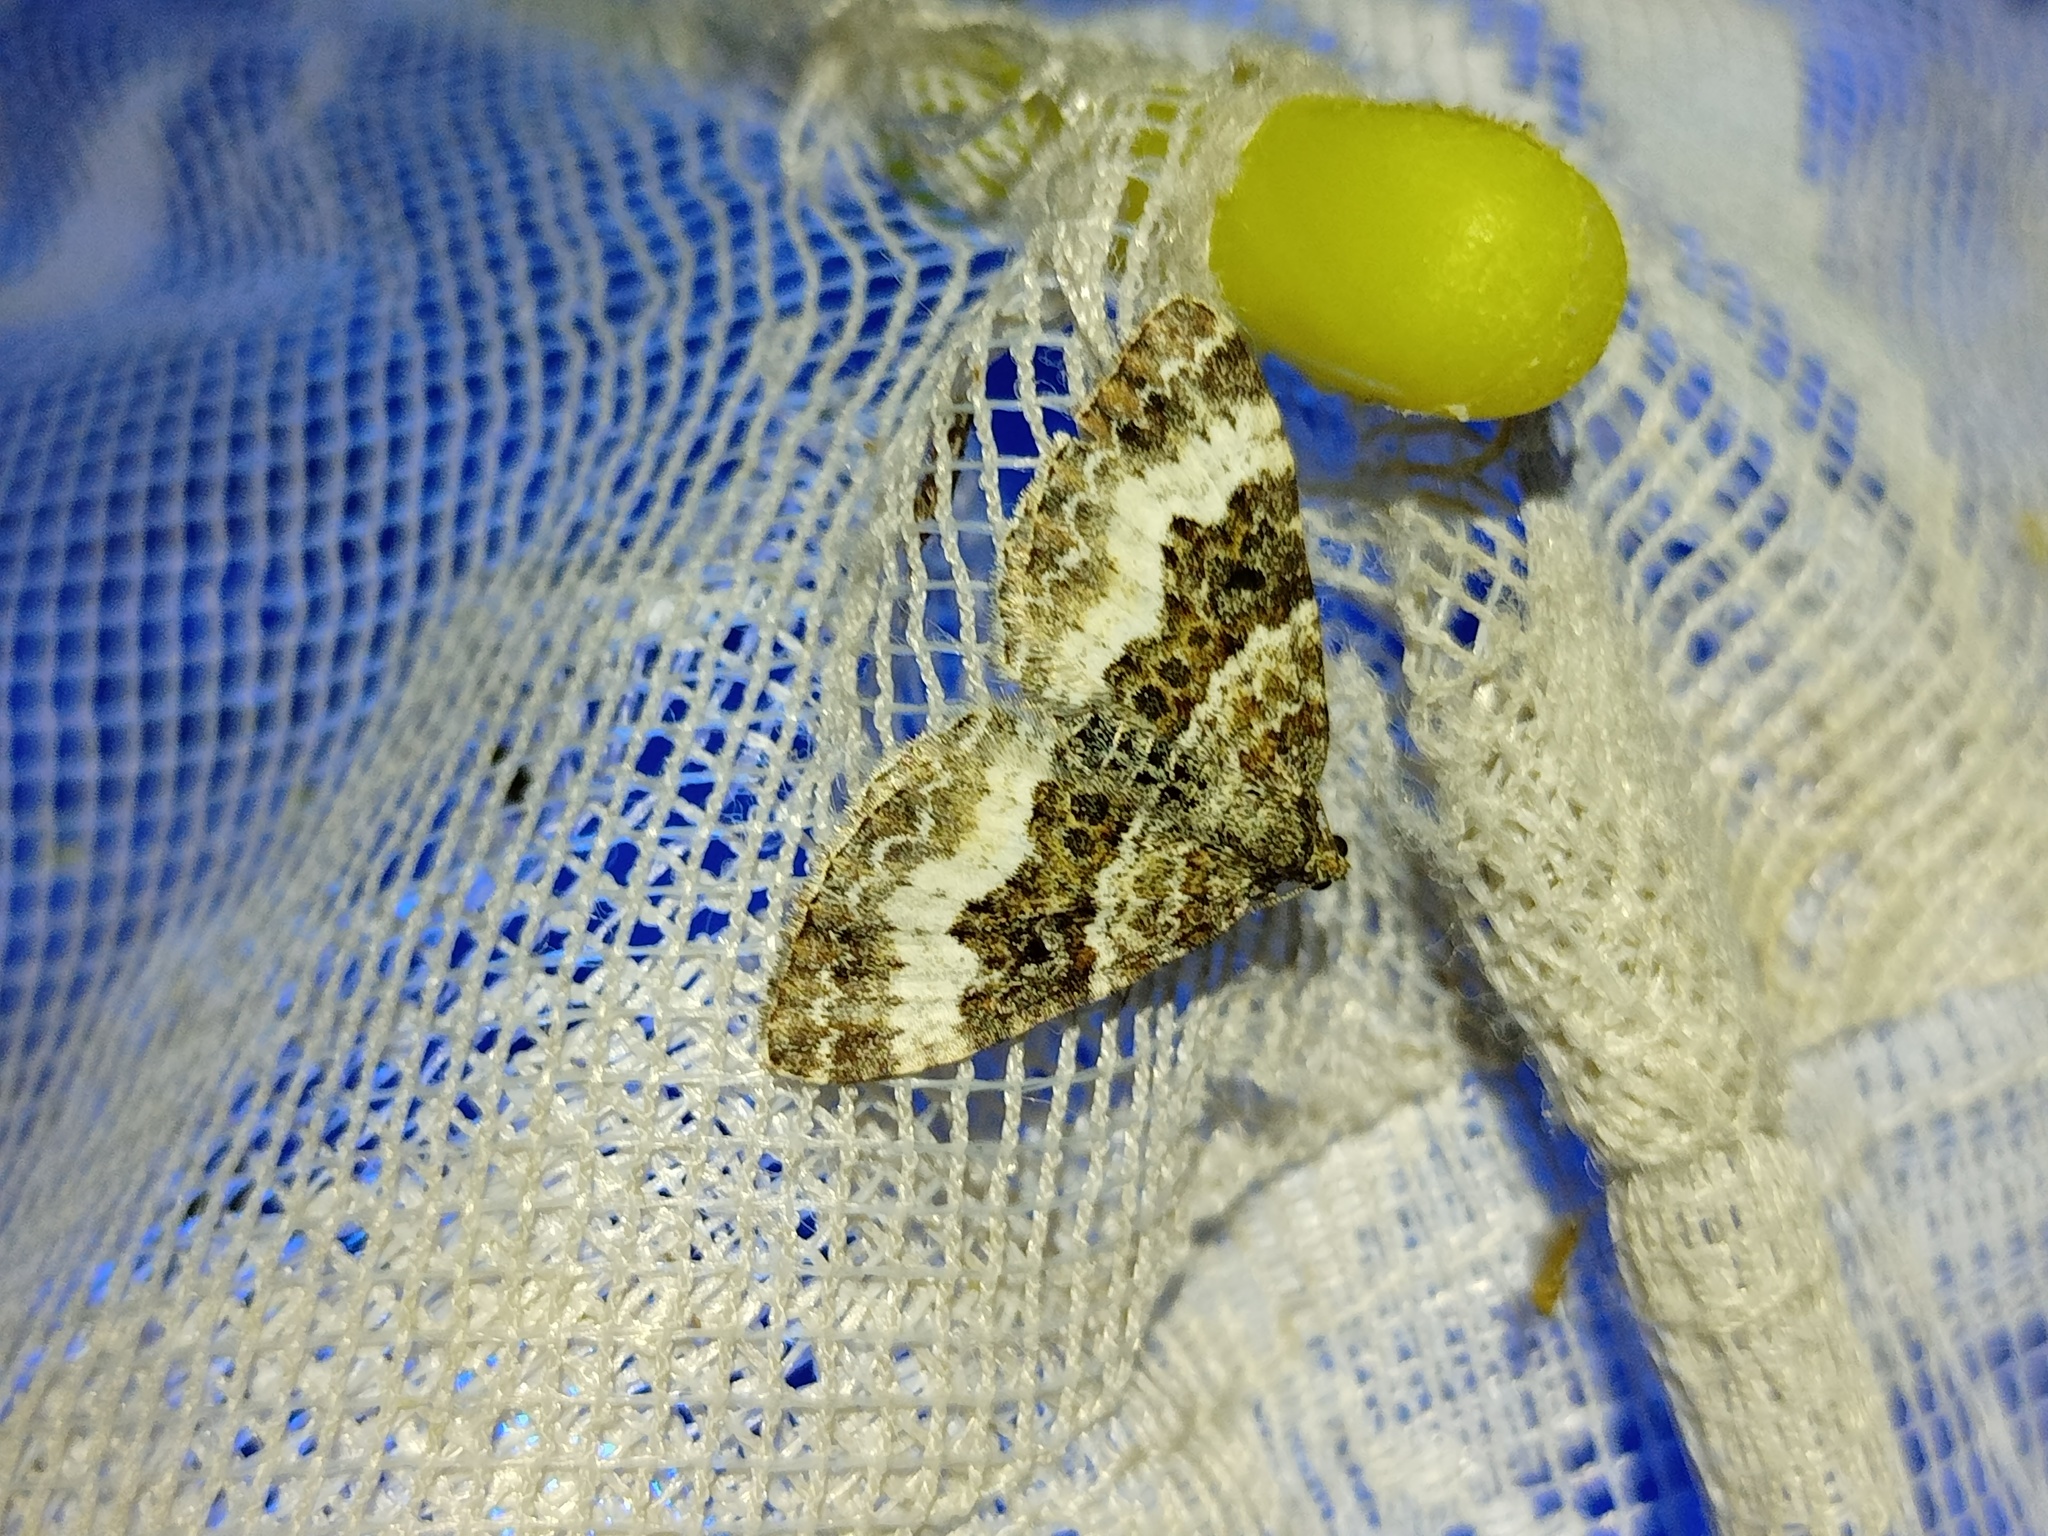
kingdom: Animalia
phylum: Arthropoda
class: Insecta
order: Lepidoptera
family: Geometridae
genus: Epirrhoe
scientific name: Epirrhoe alternata
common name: Common carpet
